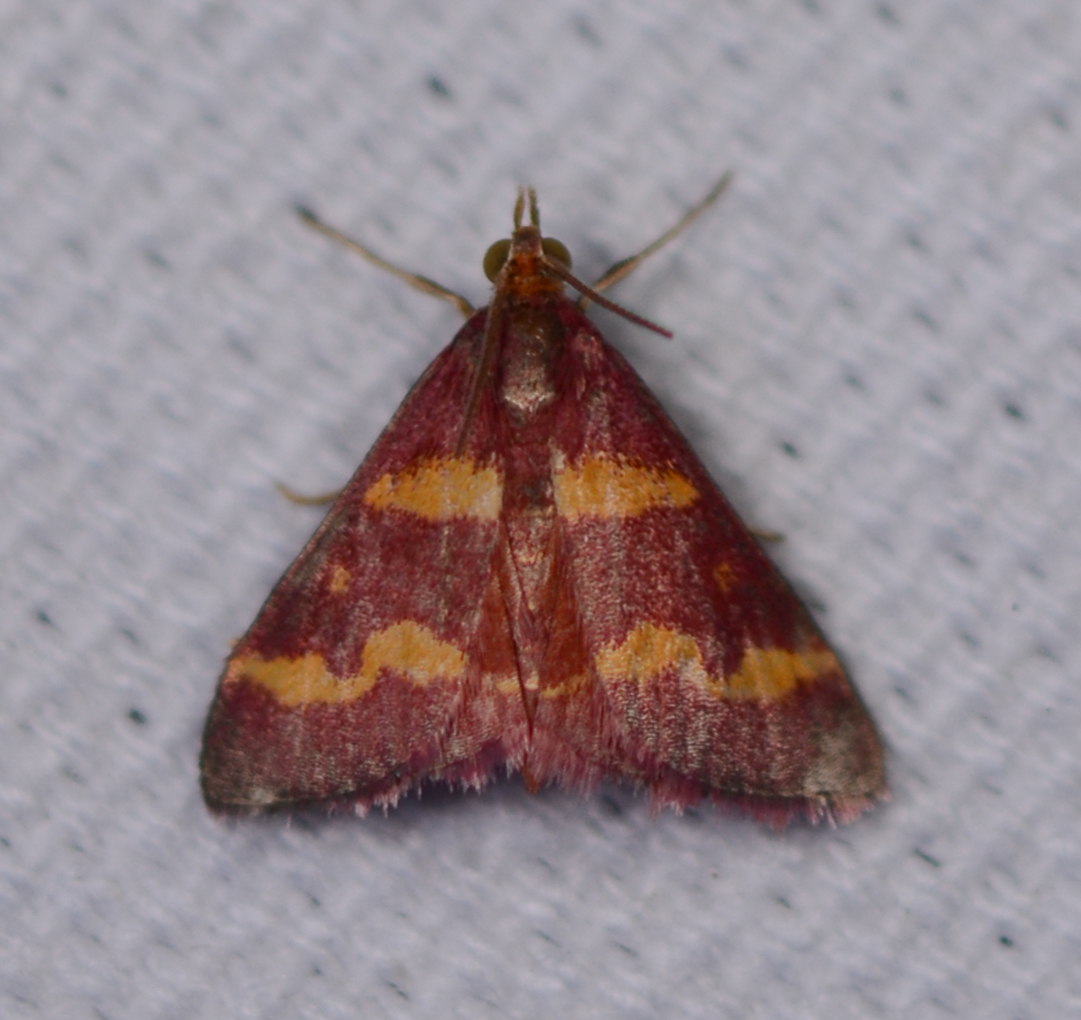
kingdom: Animalia
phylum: Arthropoda
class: Insecta
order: Lepidoptera
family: Crambidae
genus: Pyrausta
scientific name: Pyrausta tyralis
